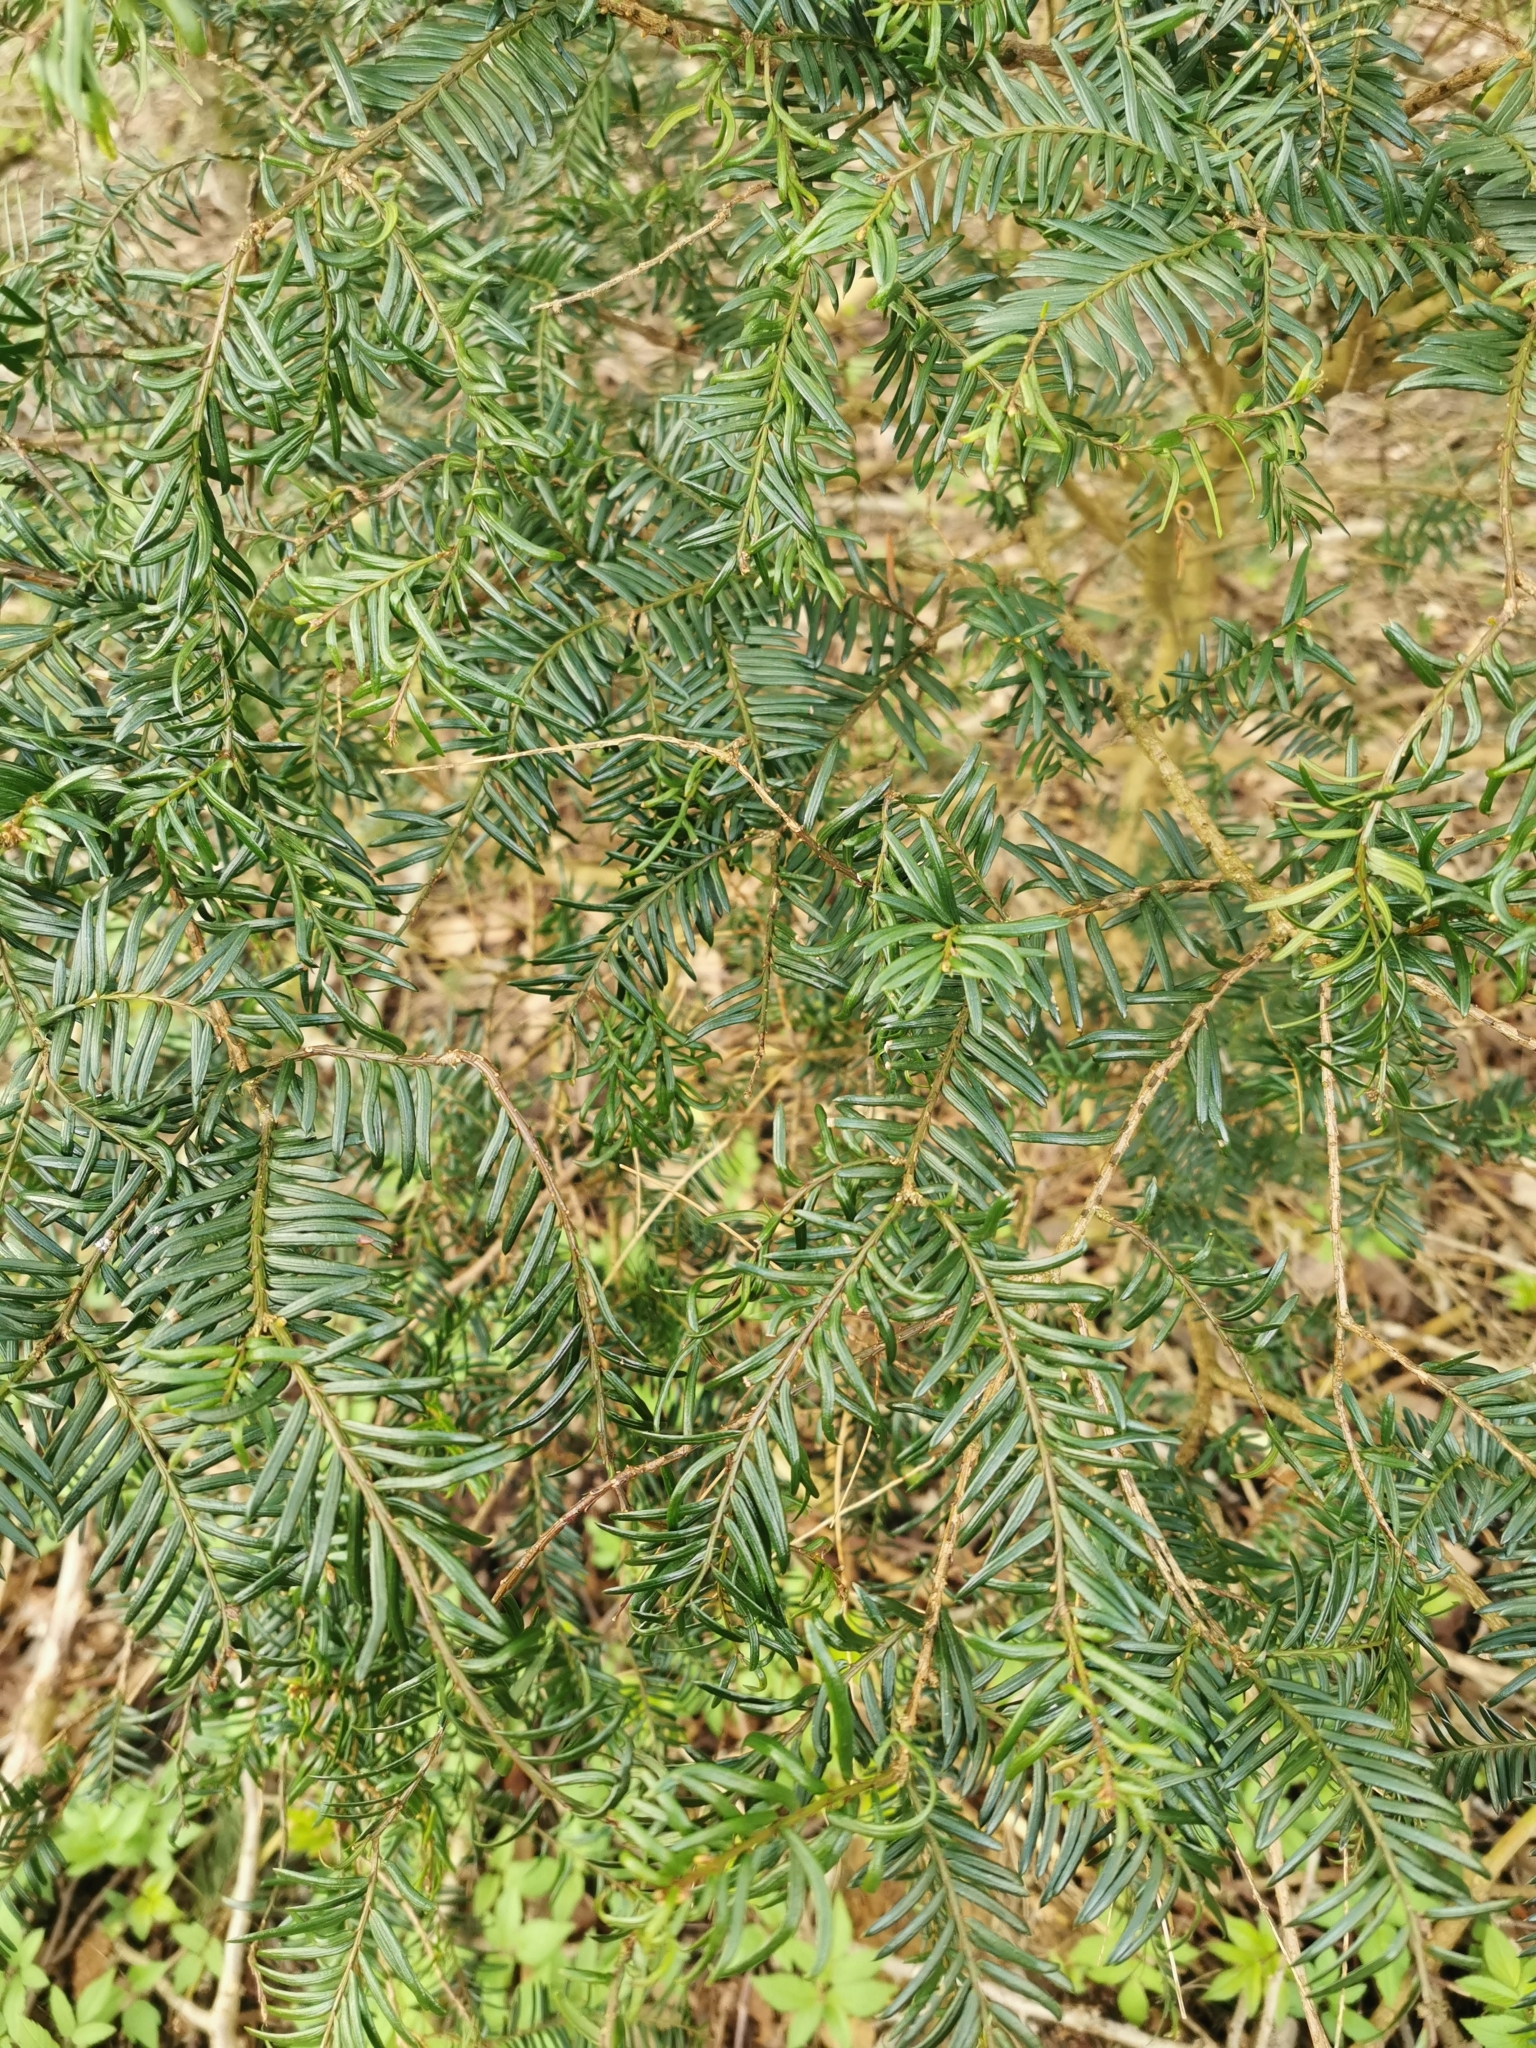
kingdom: Plantae
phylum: Tracheophyta
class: Pinopsida
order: Pinales
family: Taxaceae
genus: Taxus
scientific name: Taxus baccata
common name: Yew
